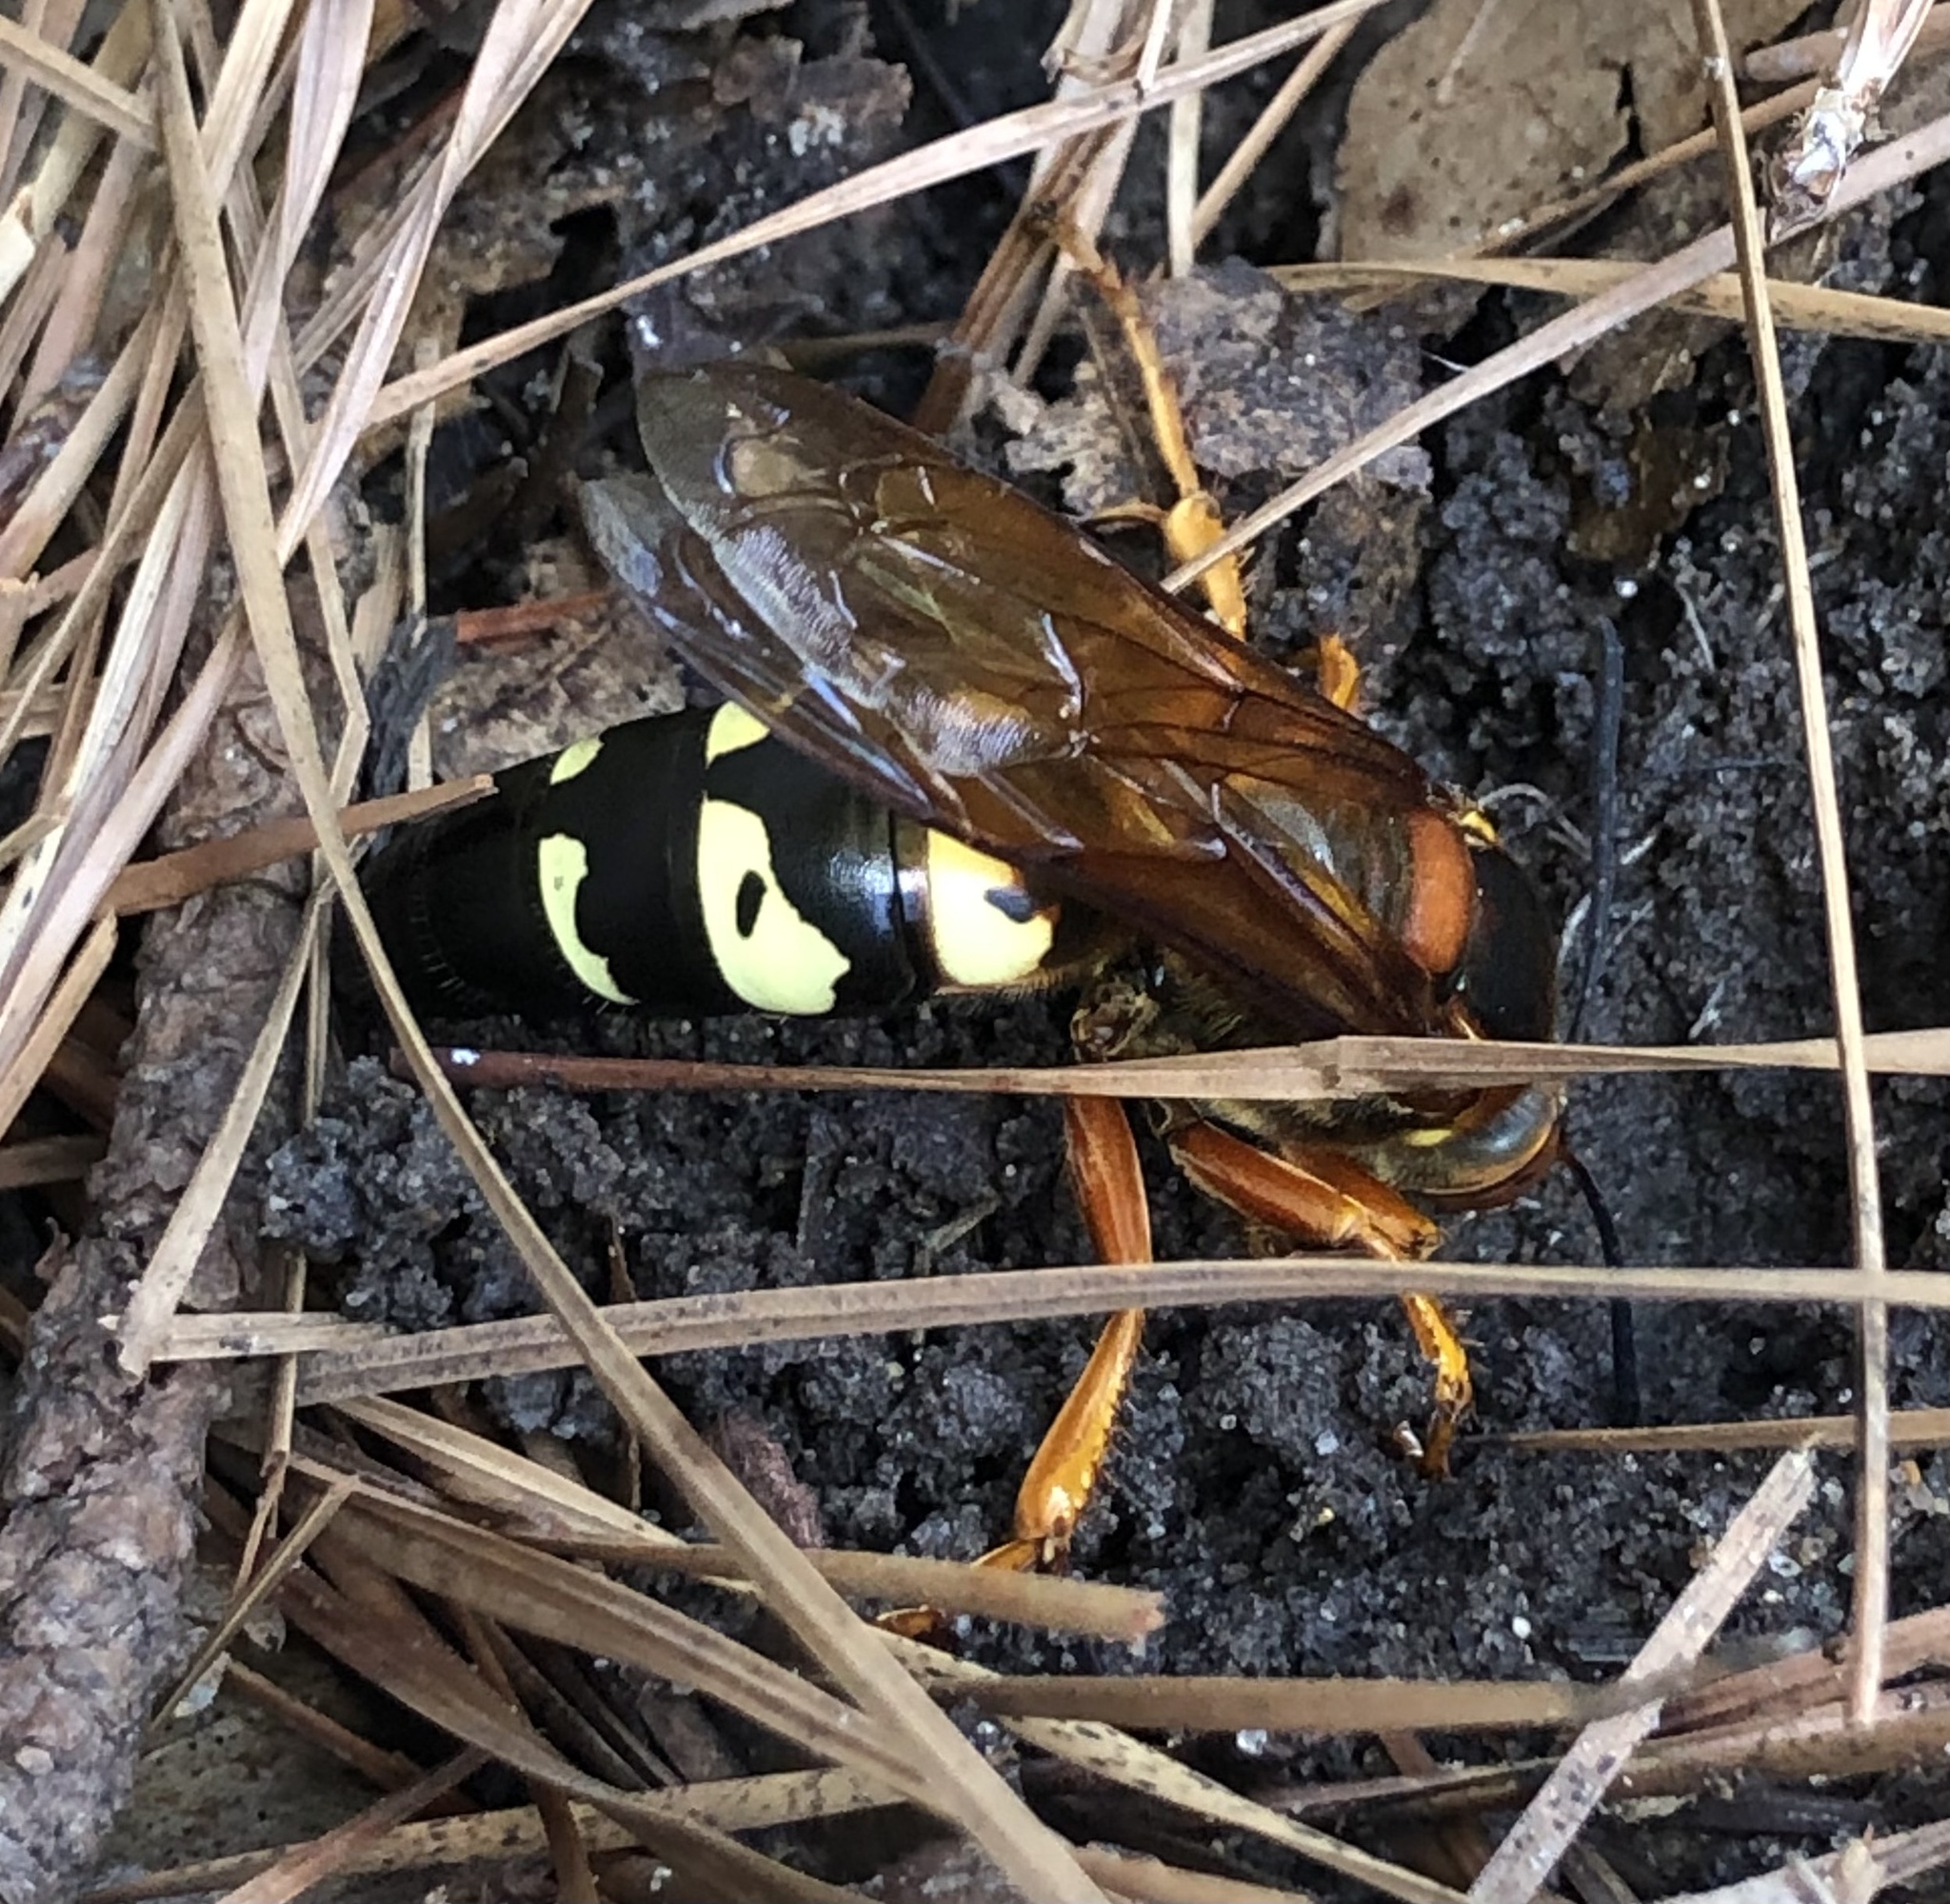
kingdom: Animalia
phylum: Arthropoda
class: Insecta
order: Hymenoptera
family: Crabronidae
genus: Sphecius
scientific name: Sphecius speciosus
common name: Cicada killer
